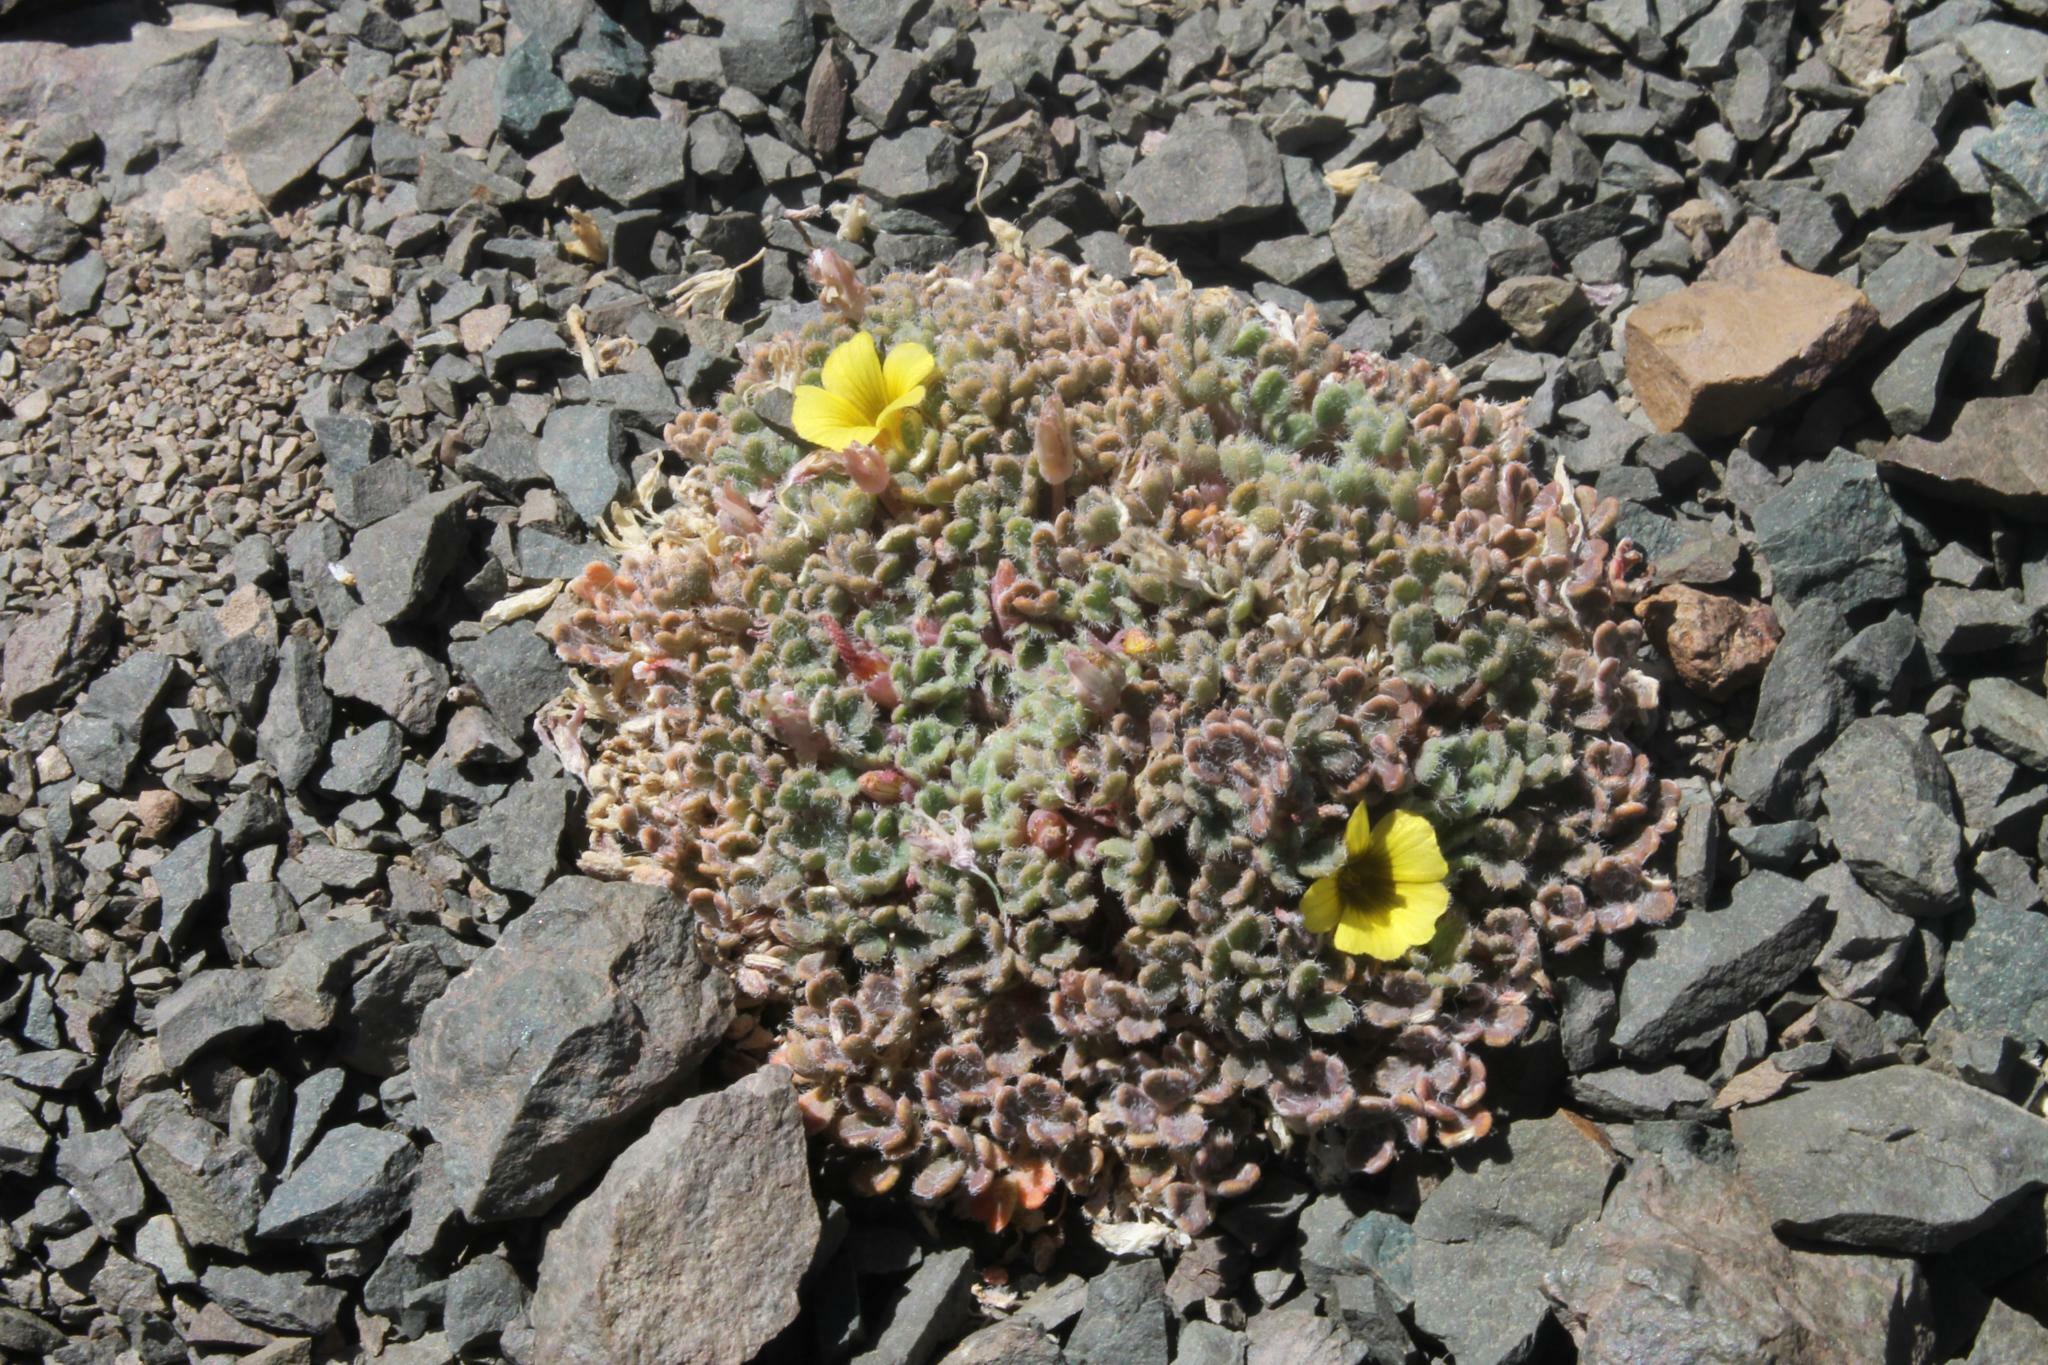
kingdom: Plantae
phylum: Tracheophyta
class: Magnoliopsida
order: Oxalidales
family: Oxalidaceae
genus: Oxalis
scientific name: Oxalis compacta
